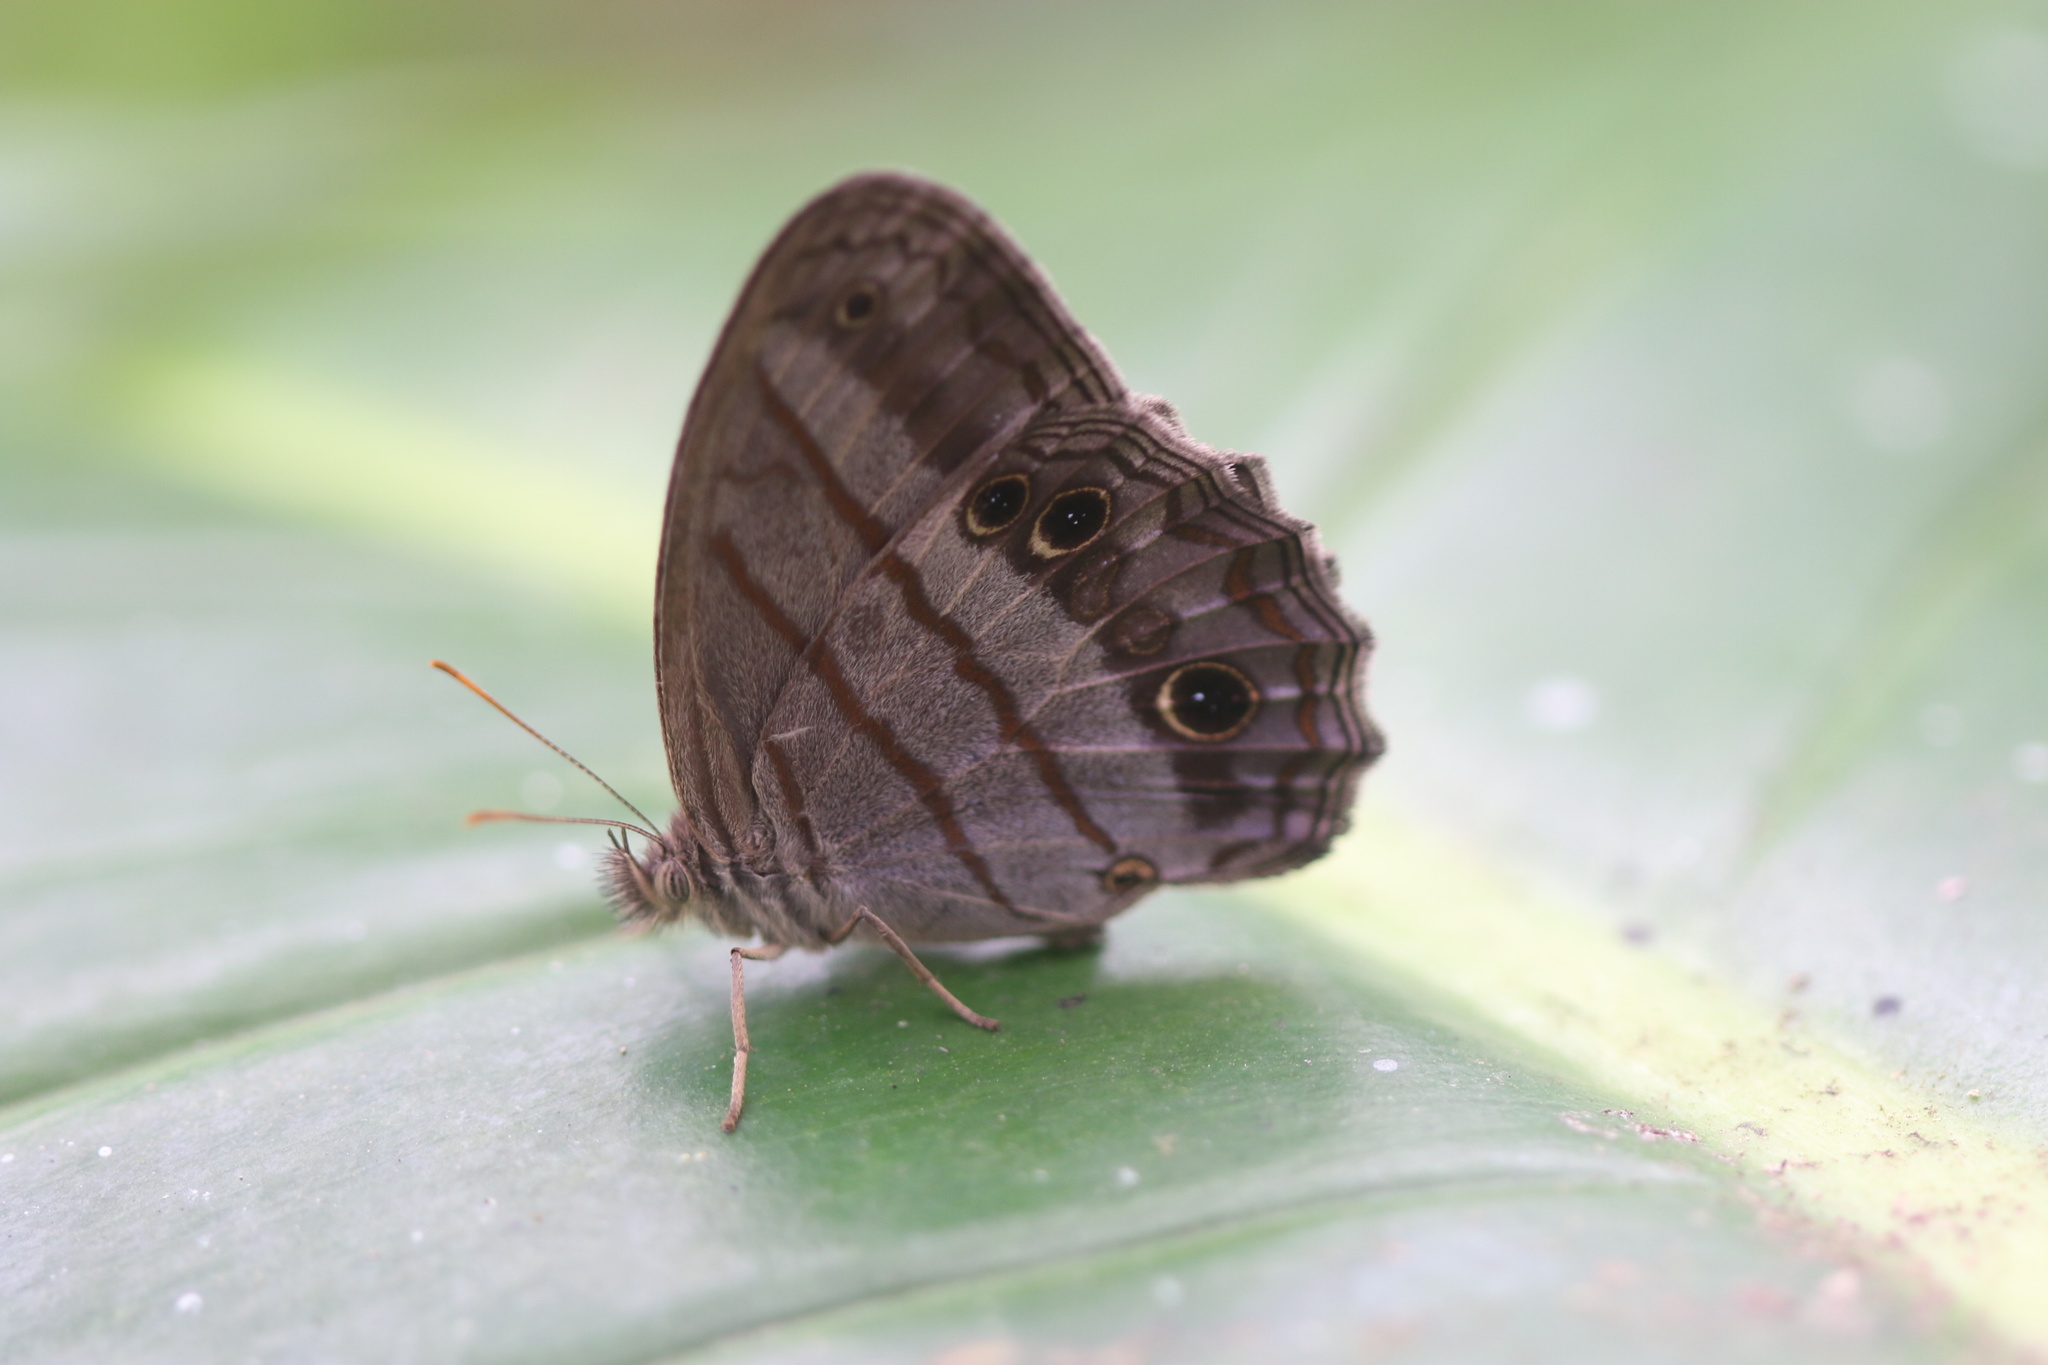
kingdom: Animalia
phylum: Arthropoda
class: Insecta
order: Lepidoptera
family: Nymphalidae
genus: Magneuptychia
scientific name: Magneuptychia libye
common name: Blue-gray satyr
